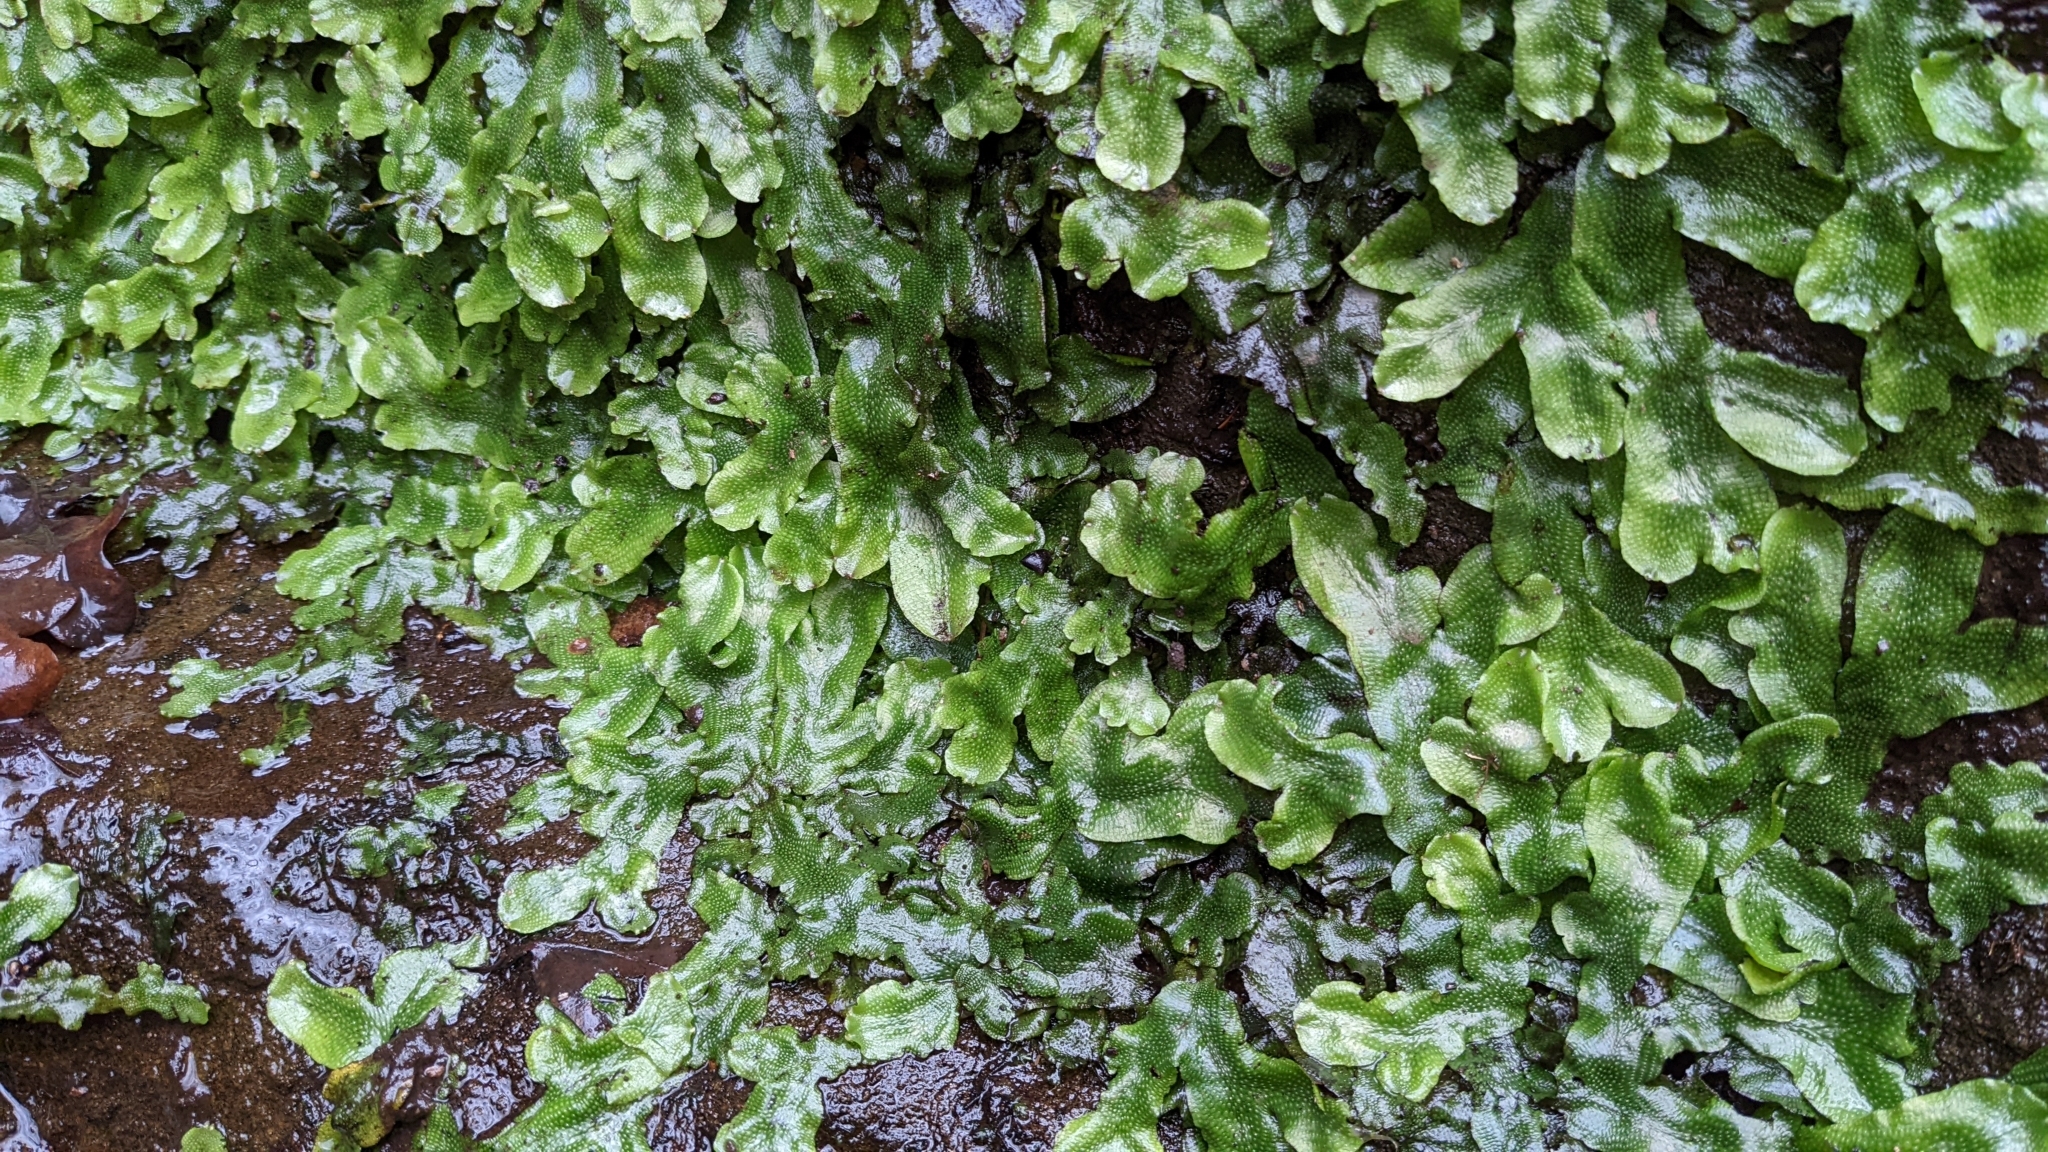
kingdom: Plantae
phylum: Marchantiophyta
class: Marchantiopsida
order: Marchantiales
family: Conocephalaceae
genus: Conocephalum
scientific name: Conocephalum conicum
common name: Great scented liverwort
